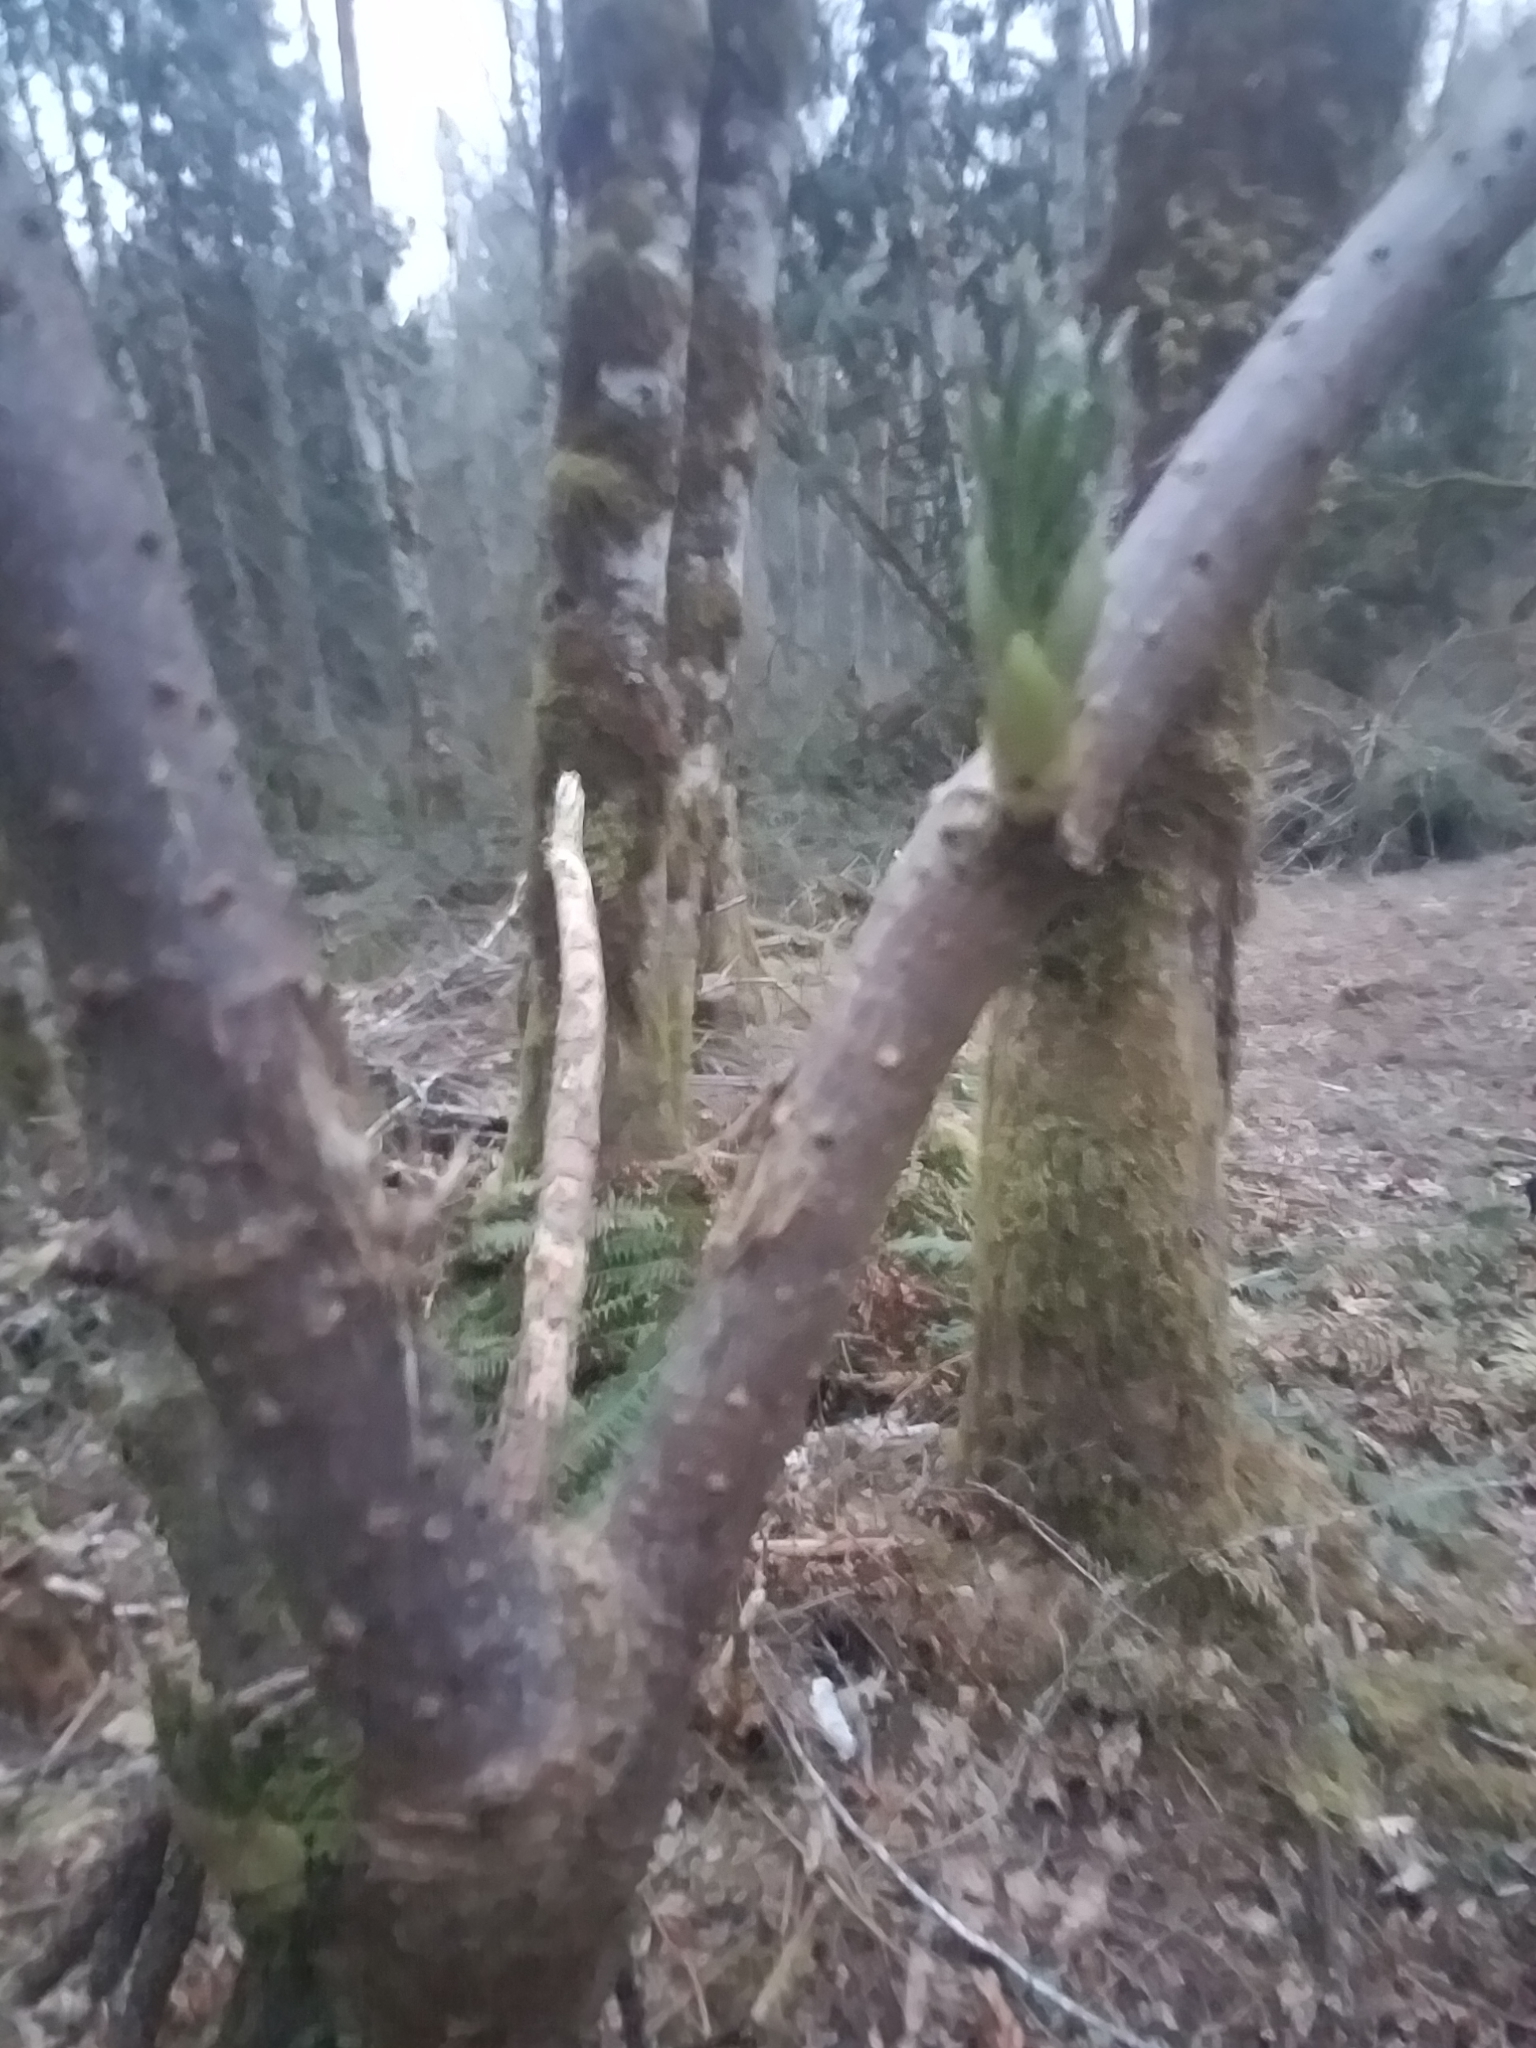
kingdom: Plantae
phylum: Tracheophyta
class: Magnoliopsida
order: Dipsacales
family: Viburnaceae
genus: Sambucus
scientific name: Sambucus racemosa
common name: Red-berried elder
